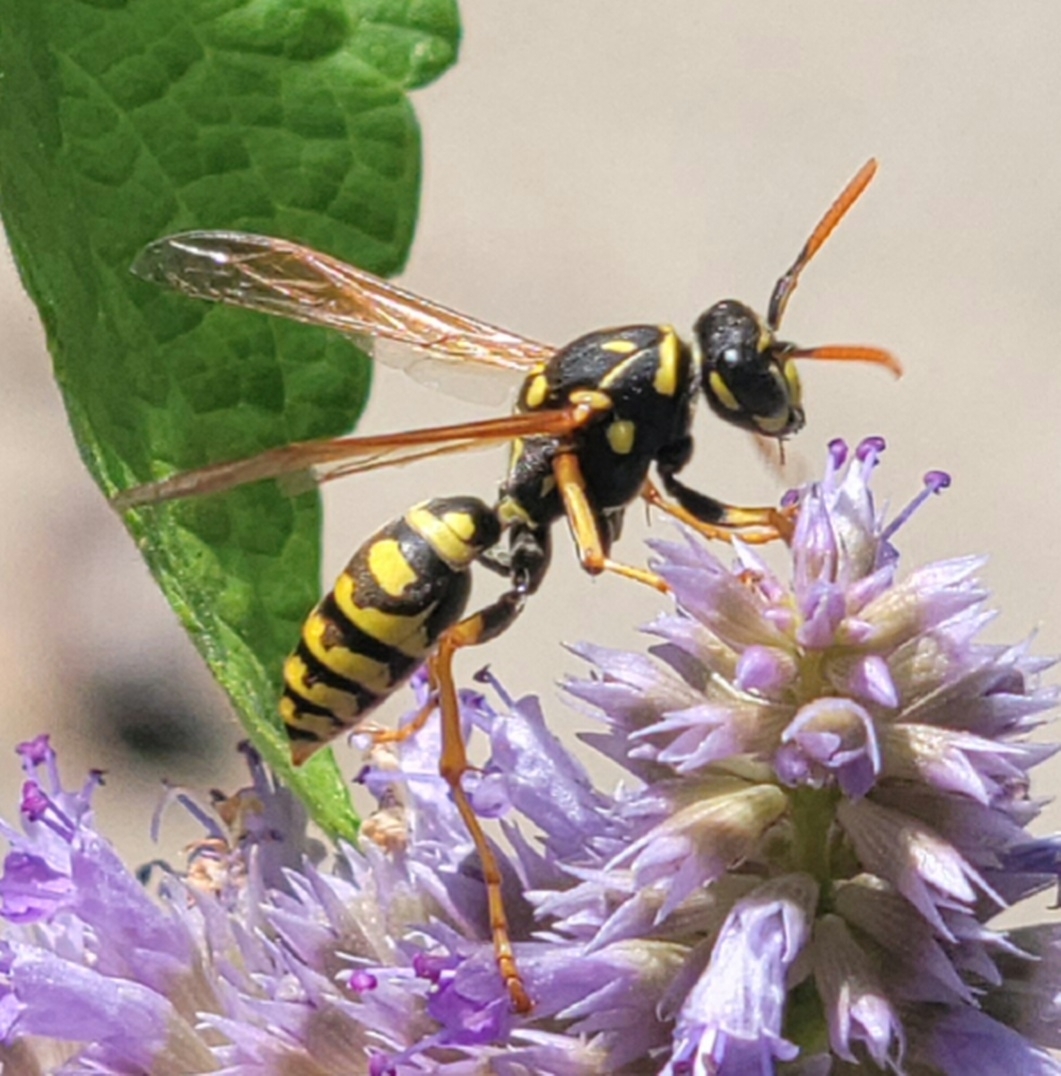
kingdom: Animalia
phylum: Arthropoda
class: Insecta
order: Hymenoptera
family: Eumenidae
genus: Polistes
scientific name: Polistes dominula
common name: Paper wasp
